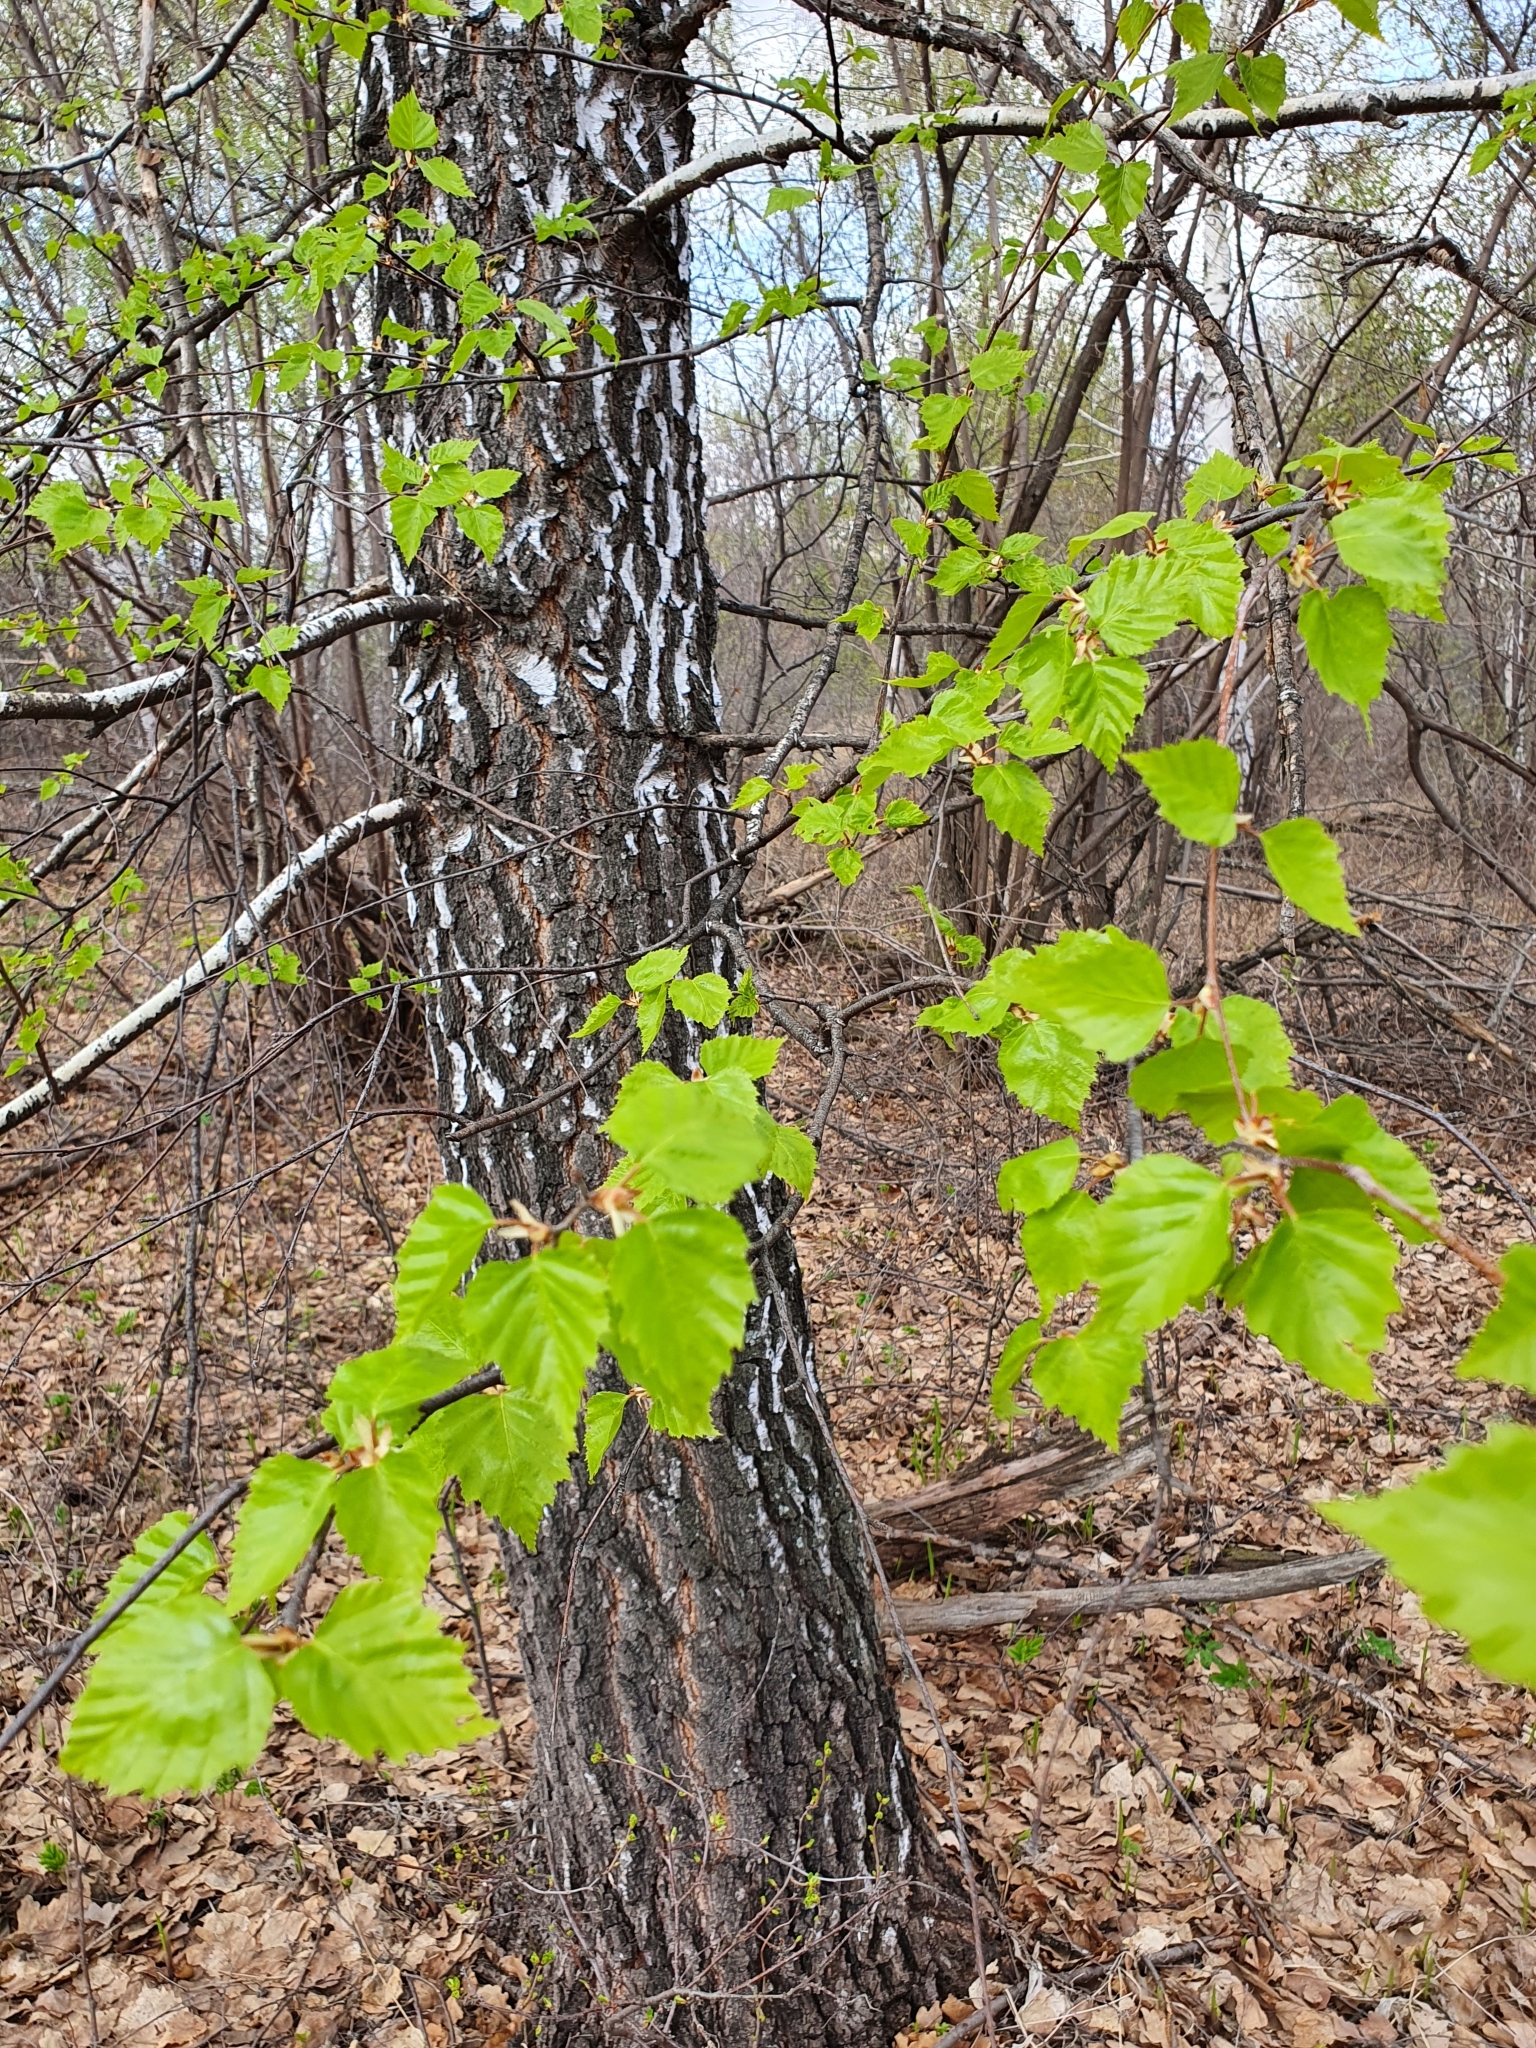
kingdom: Plantae
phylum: Tracheophyta
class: Magnoliopsida
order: Fagales
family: Betulaceae
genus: Betula
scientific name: Betula pendula
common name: Silver birch
